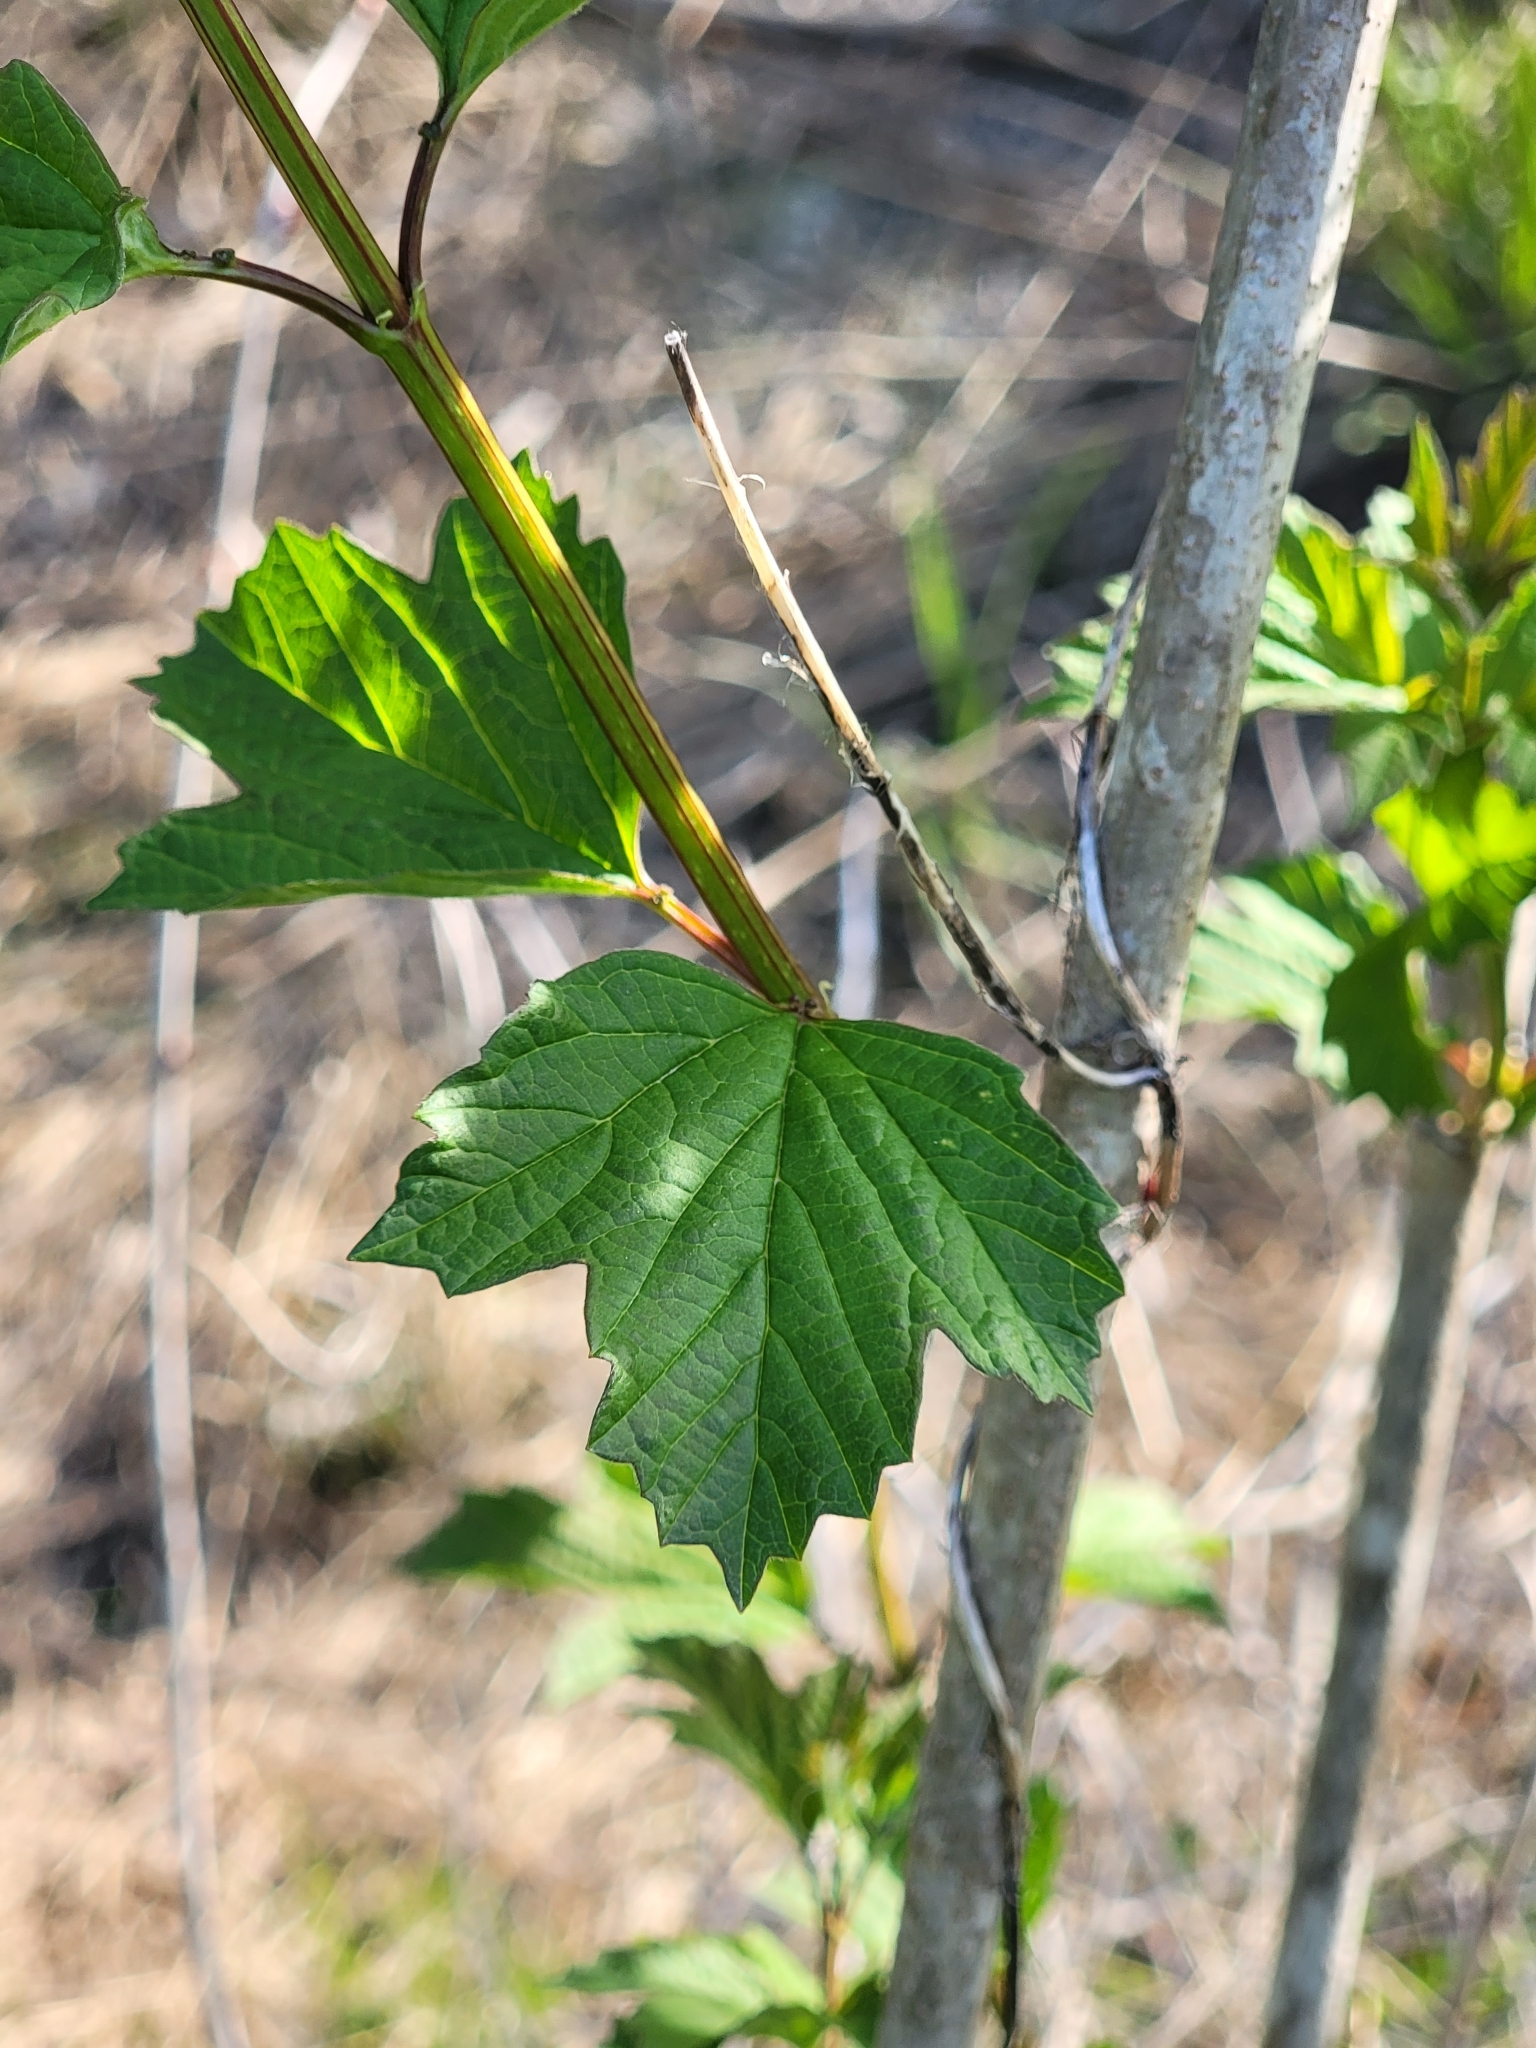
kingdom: Plantae
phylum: Tracheophyta
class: Magnoliopsida
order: Dipsacales
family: Viburnaceae
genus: Viburnum
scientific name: Viburnum opulus
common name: Guelder-rose
